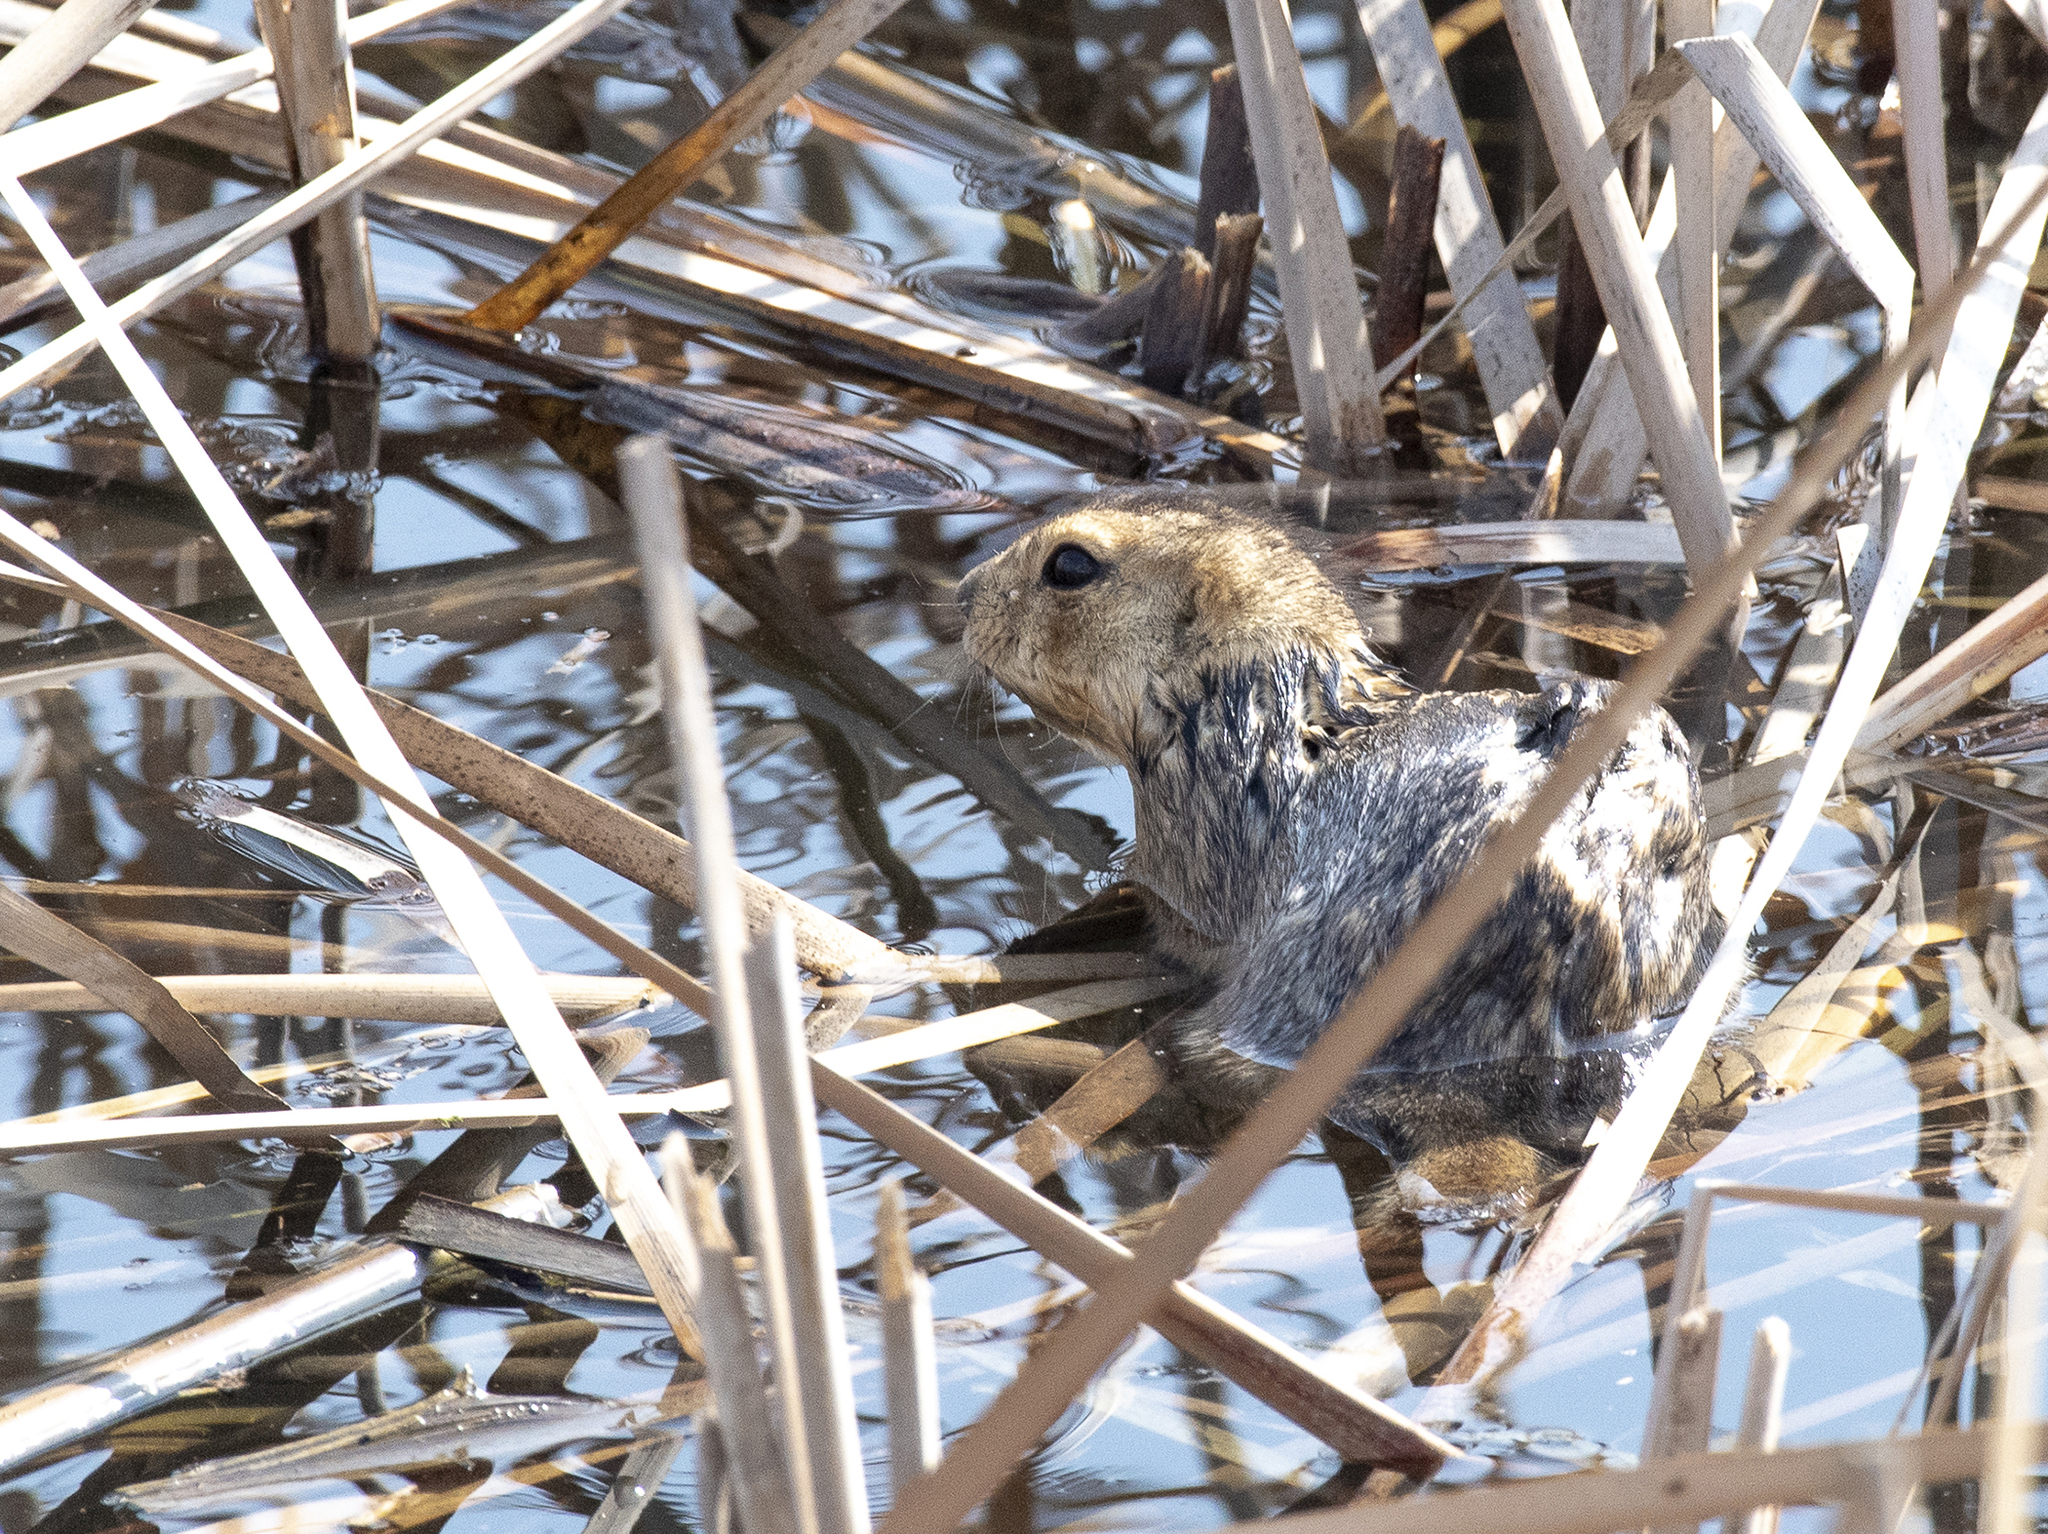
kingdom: Animalia
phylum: Chordata
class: Mammalia
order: Rodentia
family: Sciuridae
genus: Spermophilus
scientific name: Spermophilus fulvus
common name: Yellow ground squirrel
